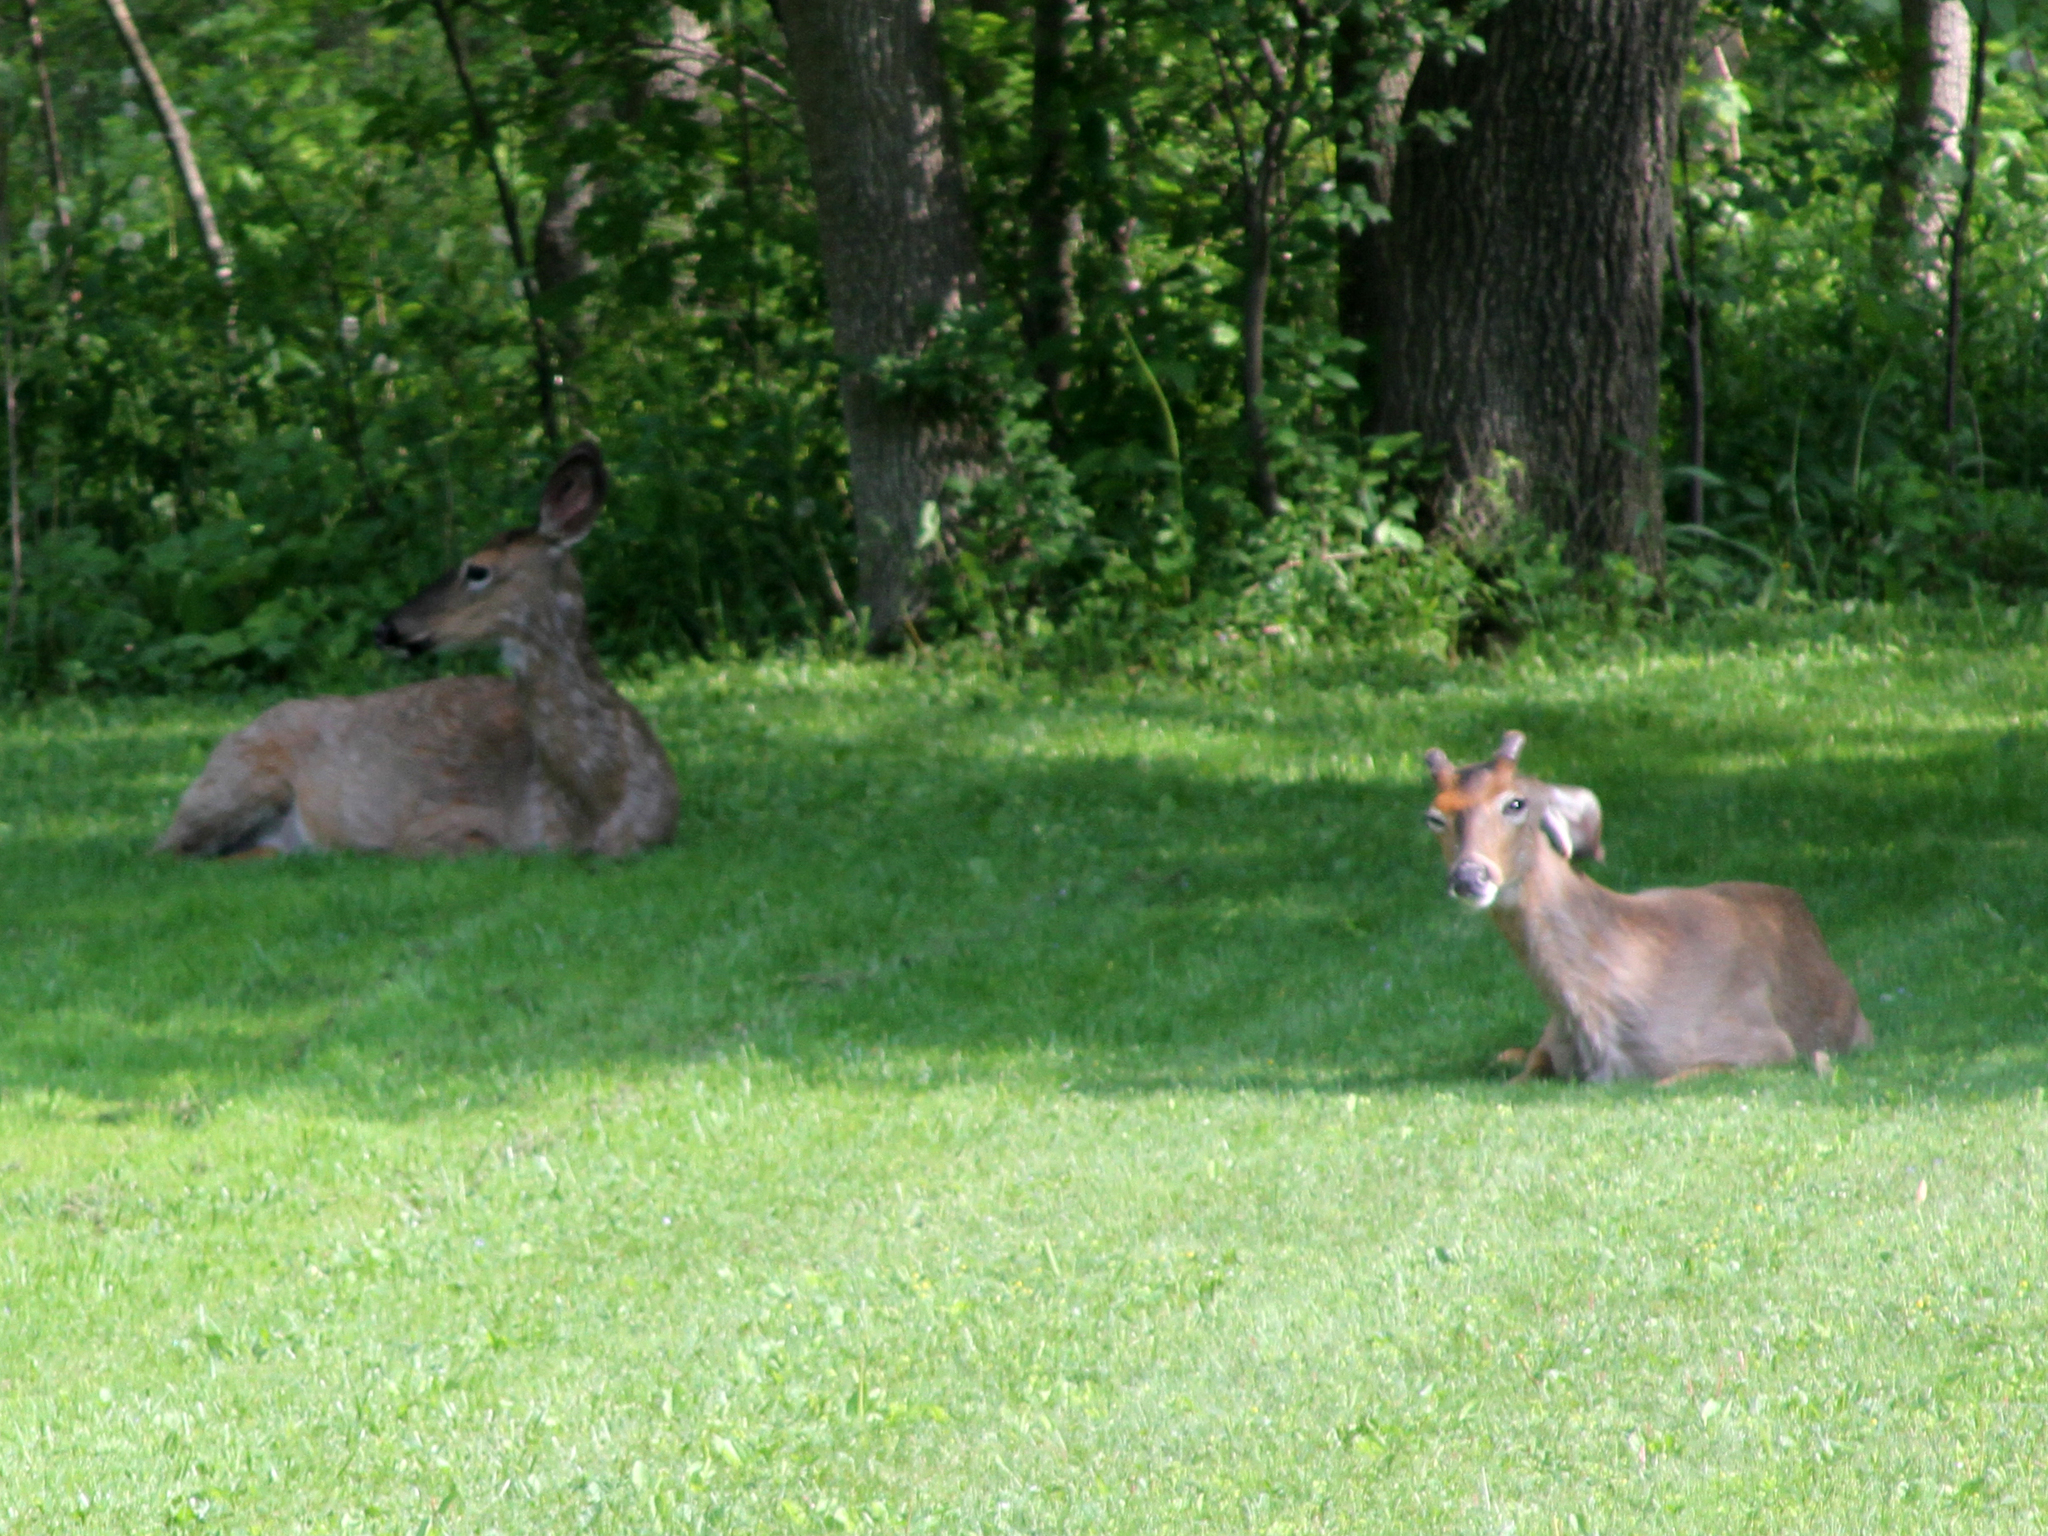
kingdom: Animalia
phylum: Chordata
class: Mammalia
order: Artiodactyla
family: Cervidae
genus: Odocoileus
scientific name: Odocoileus virginianus
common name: White-tailed deer
